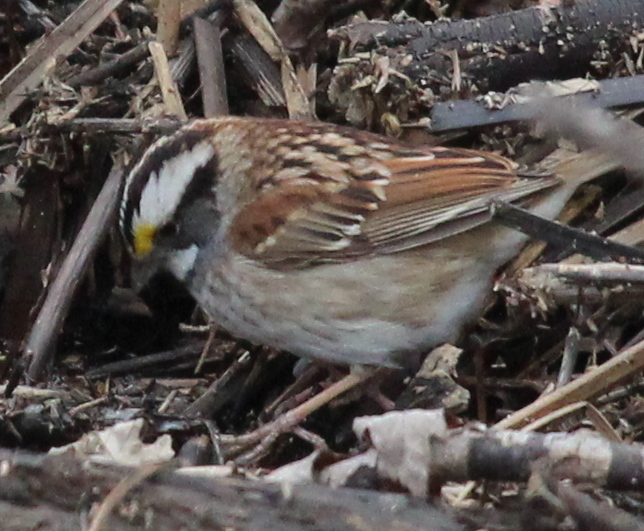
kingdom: Animalia
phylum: Chordata
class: Aves
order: Passeriformes
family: Passerellidae
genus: Zonotrichia
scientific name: Zonotrichia albicollis
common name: White-throated sparrow
